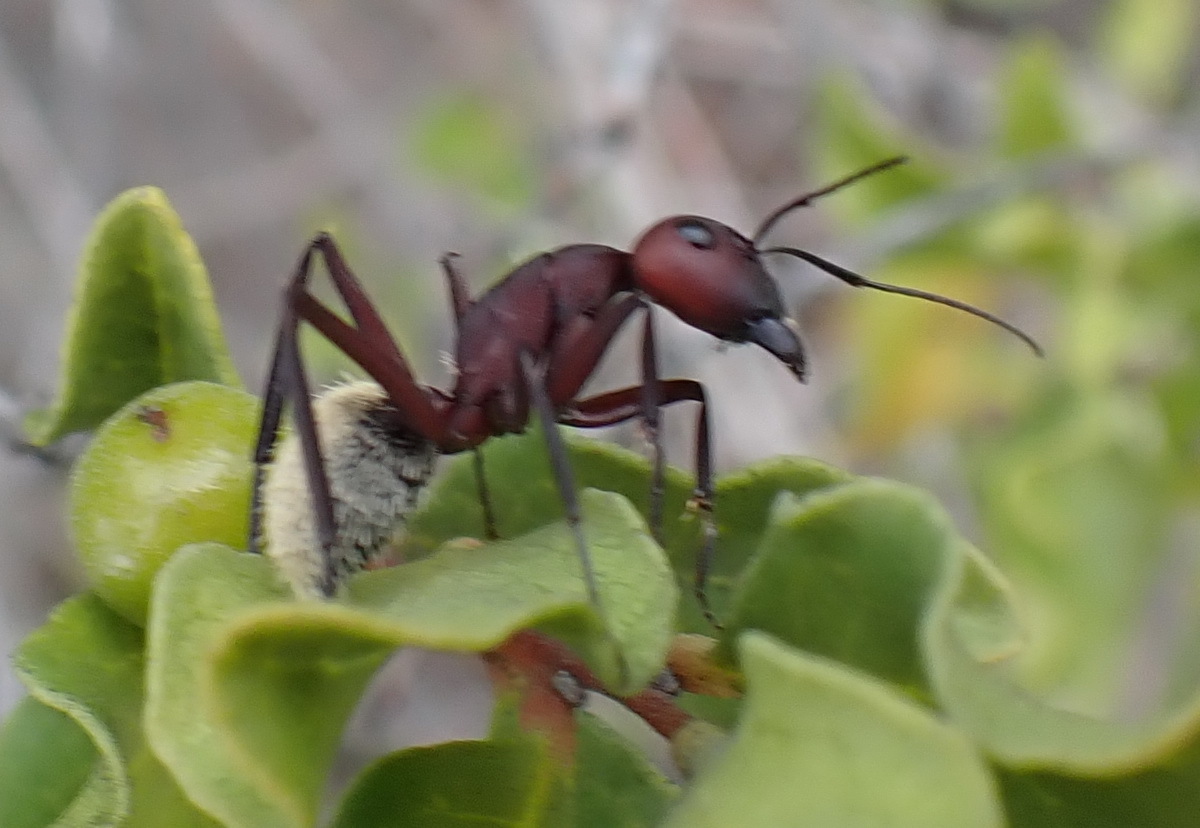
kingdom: Animalia
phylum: Arthropoda
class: Insecta
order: Hymenoptera
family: Formicidae
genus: Camponotus
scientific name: Camponotus storeatus
